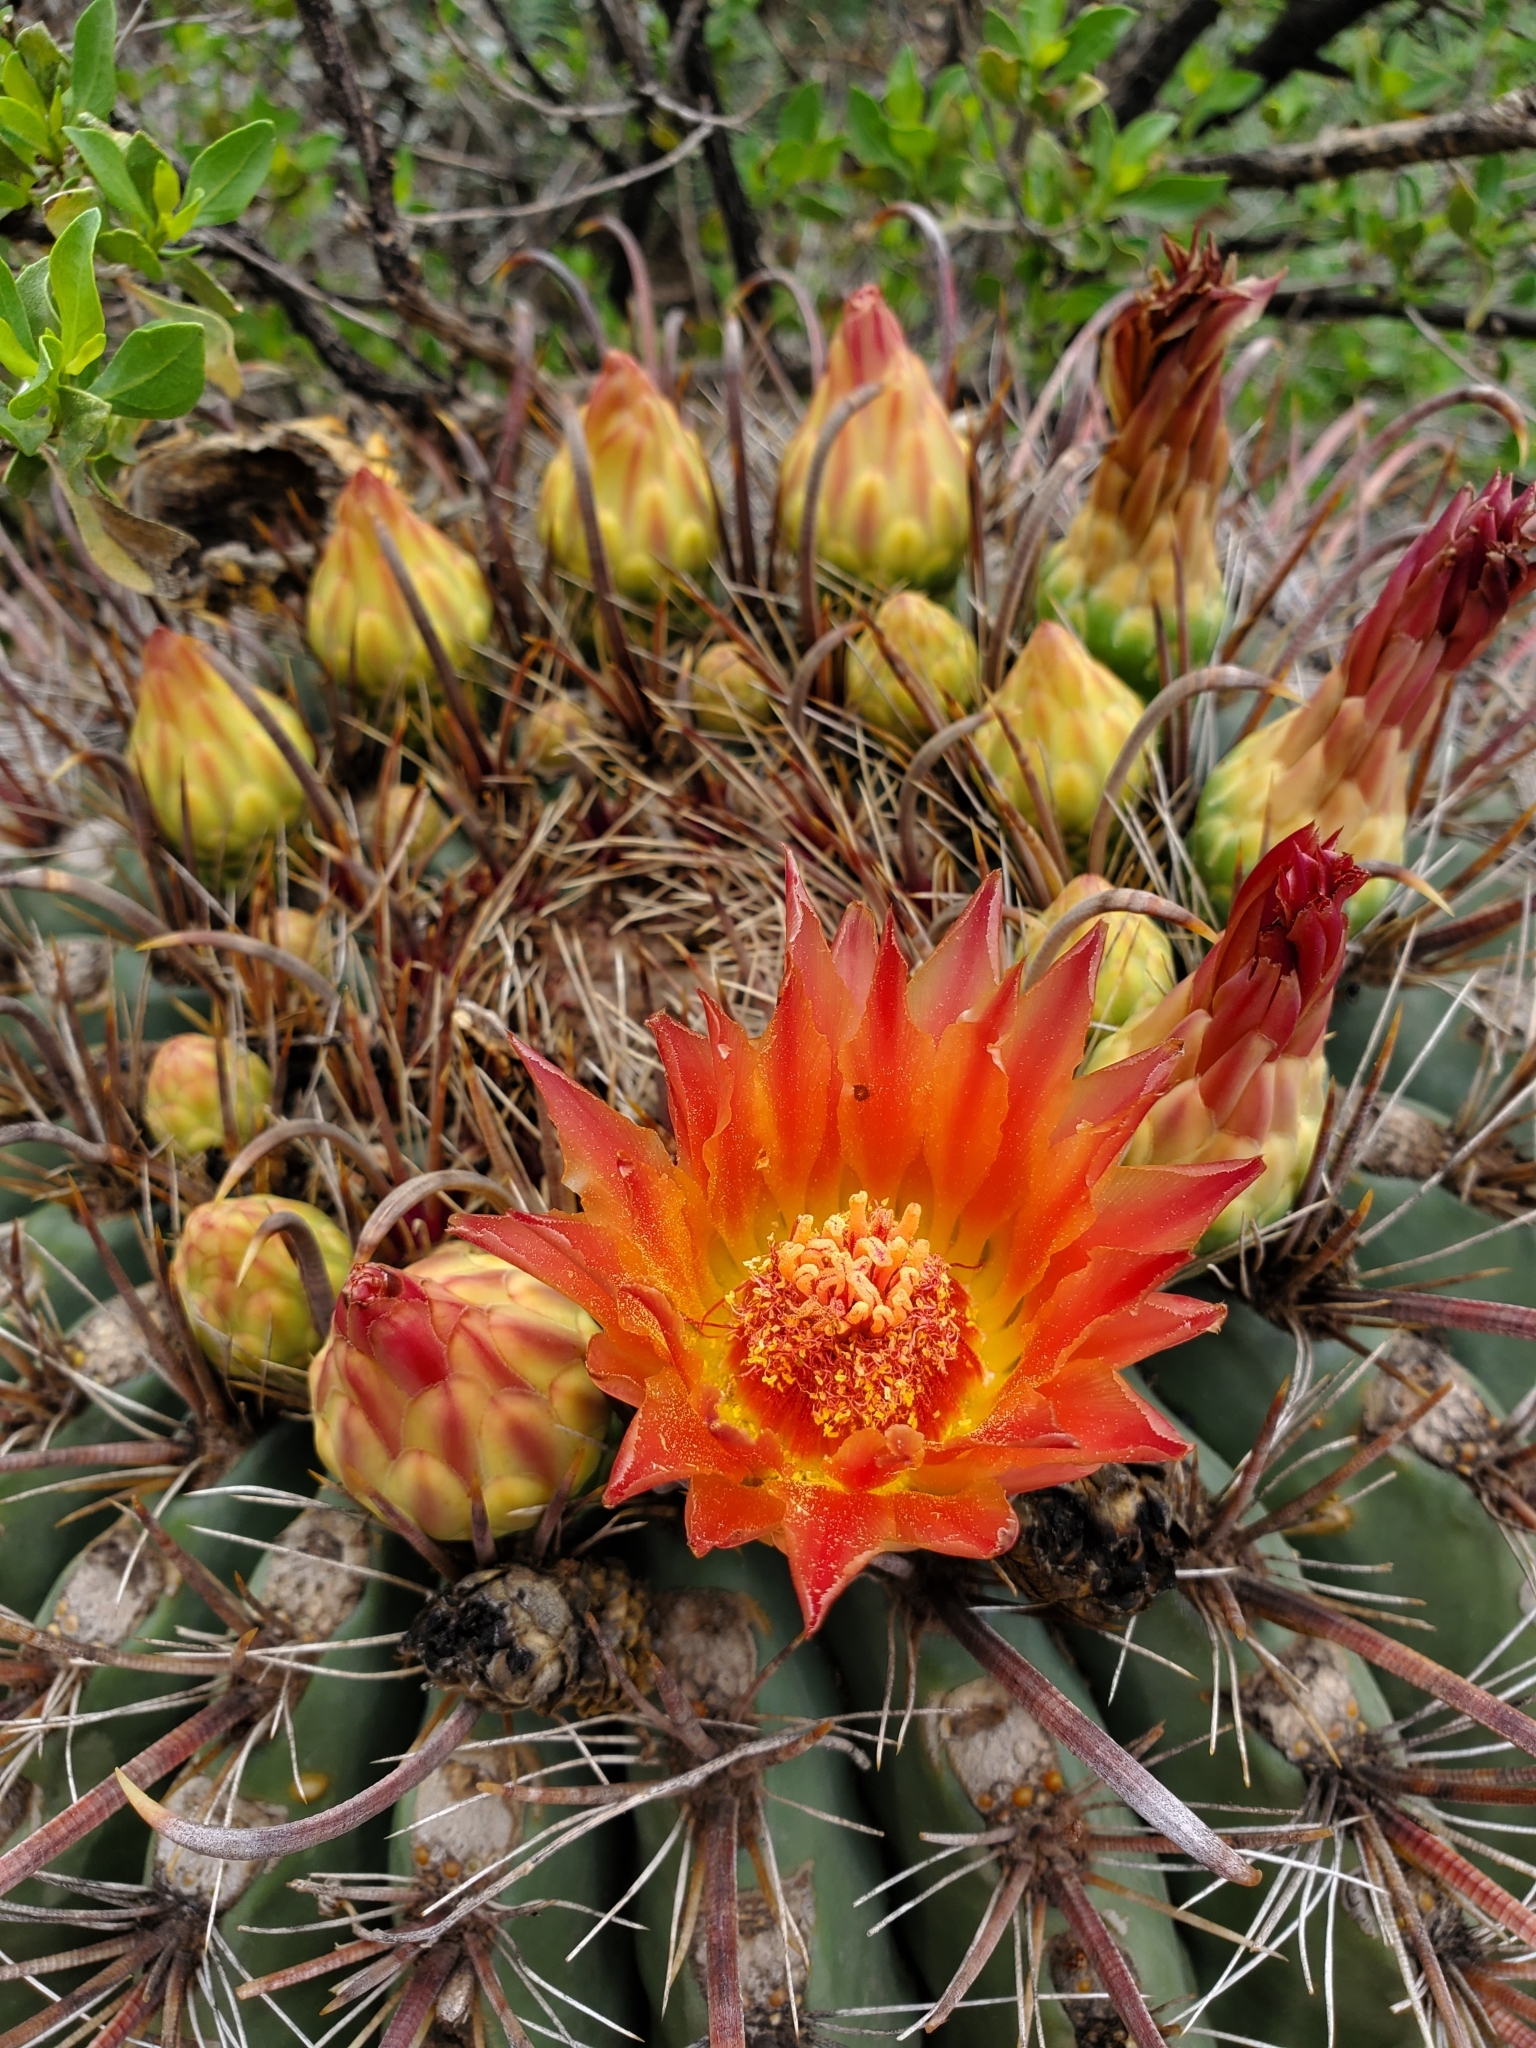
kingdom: Plantae
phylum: Tracheophyta
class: Magnoliopsida
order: Caryophyllales
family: Cactaceae
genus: Ferocactus
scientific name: Ferocactus wislizeni
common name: Candy barrel cactus
